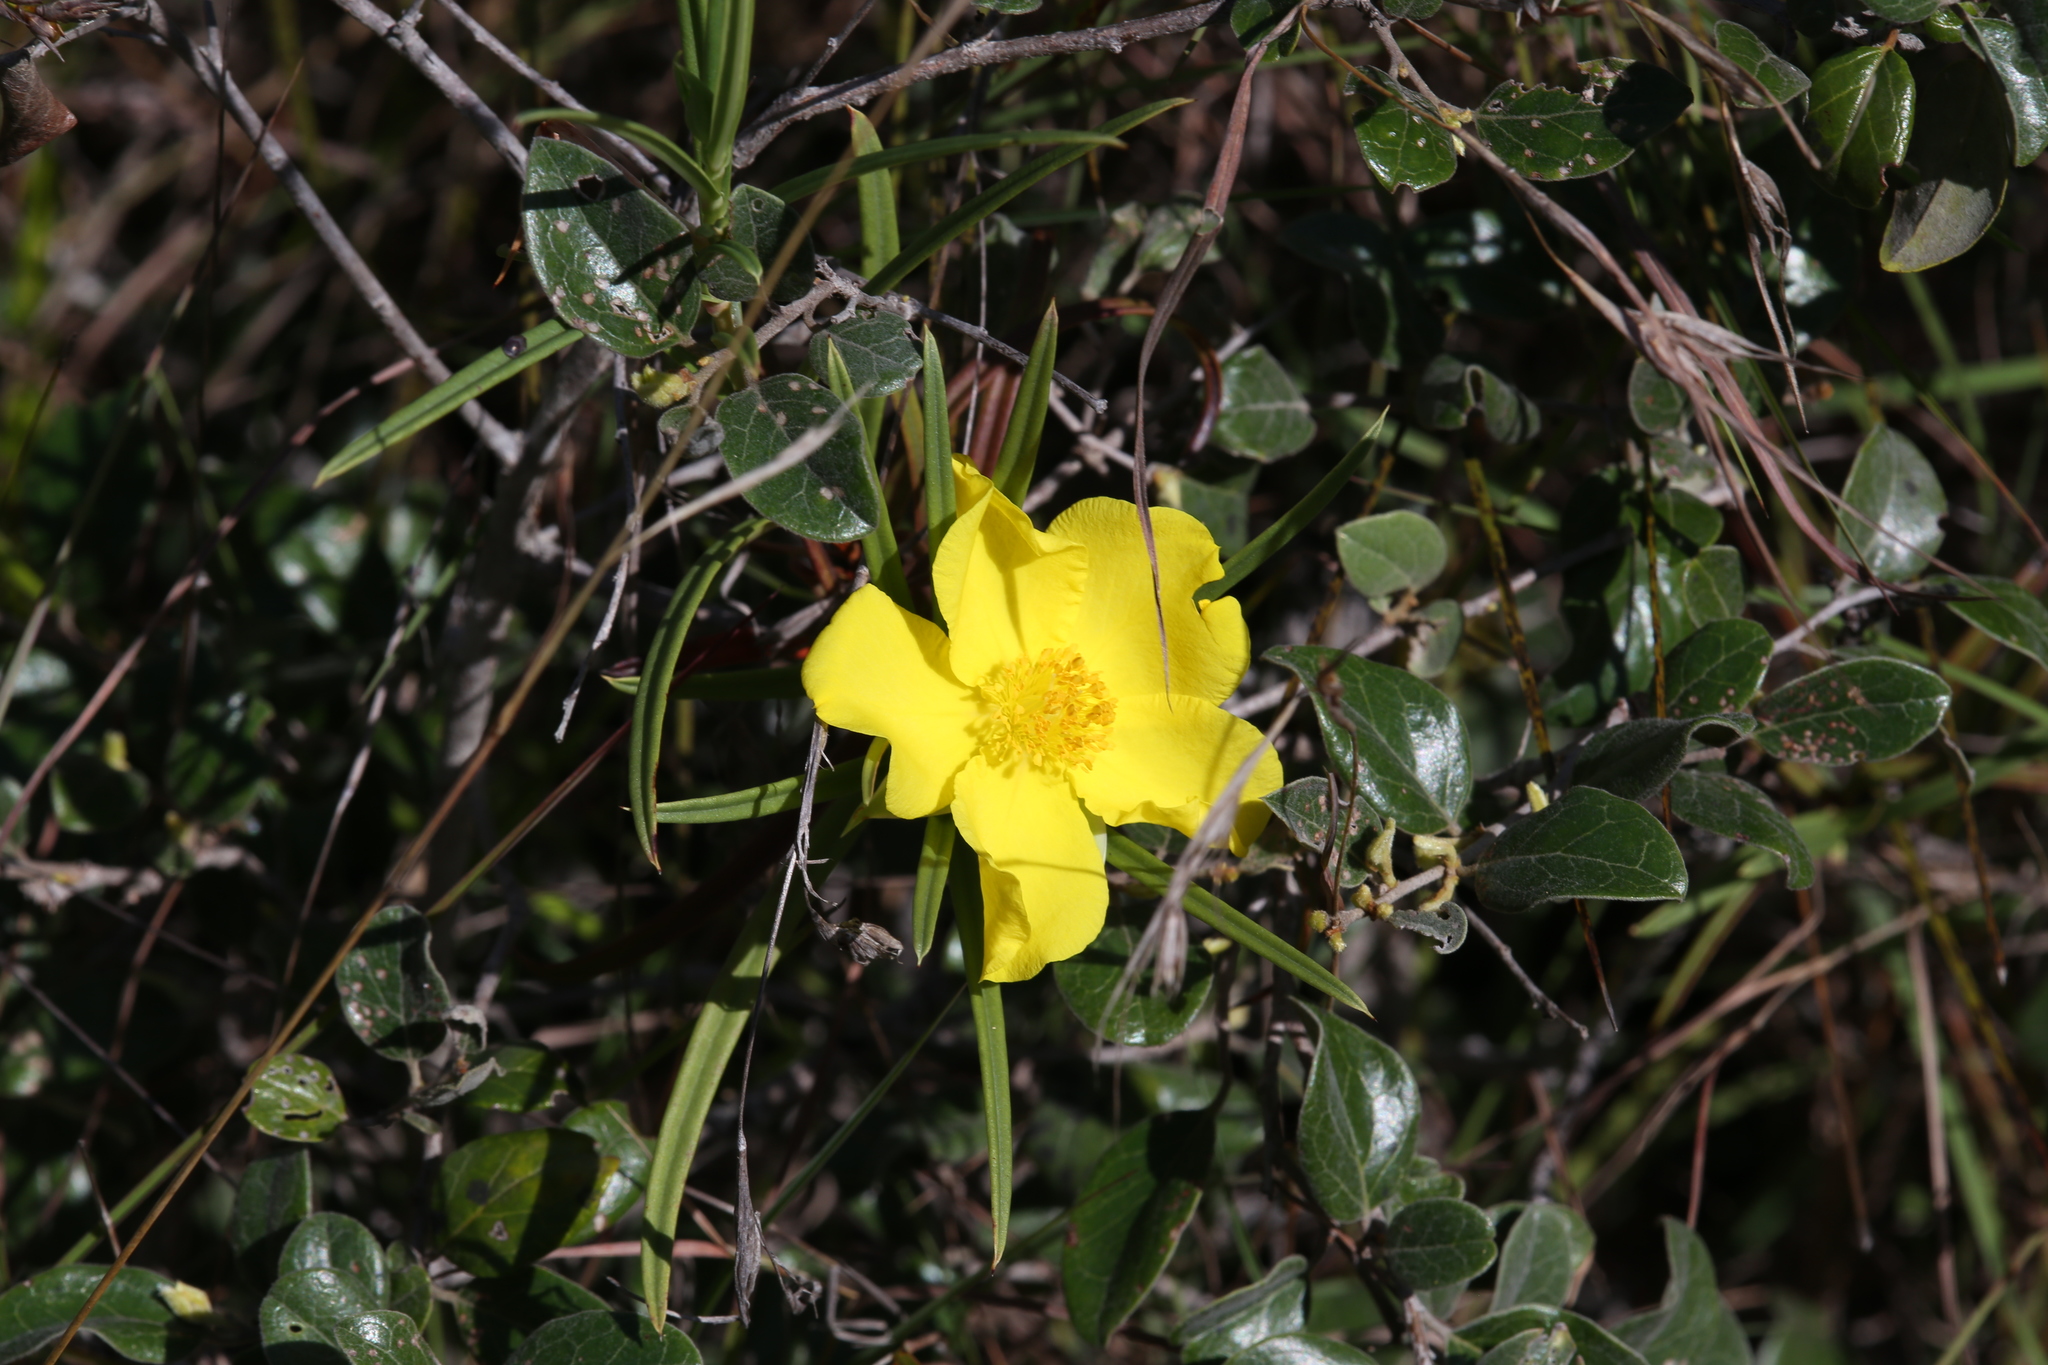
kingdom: Plantae
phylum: Tracheophyta
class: Magnoliopsida
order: Dilleniales
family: Dilleniaceae
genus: Hibbertia
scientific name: Hibbertia longifolia
